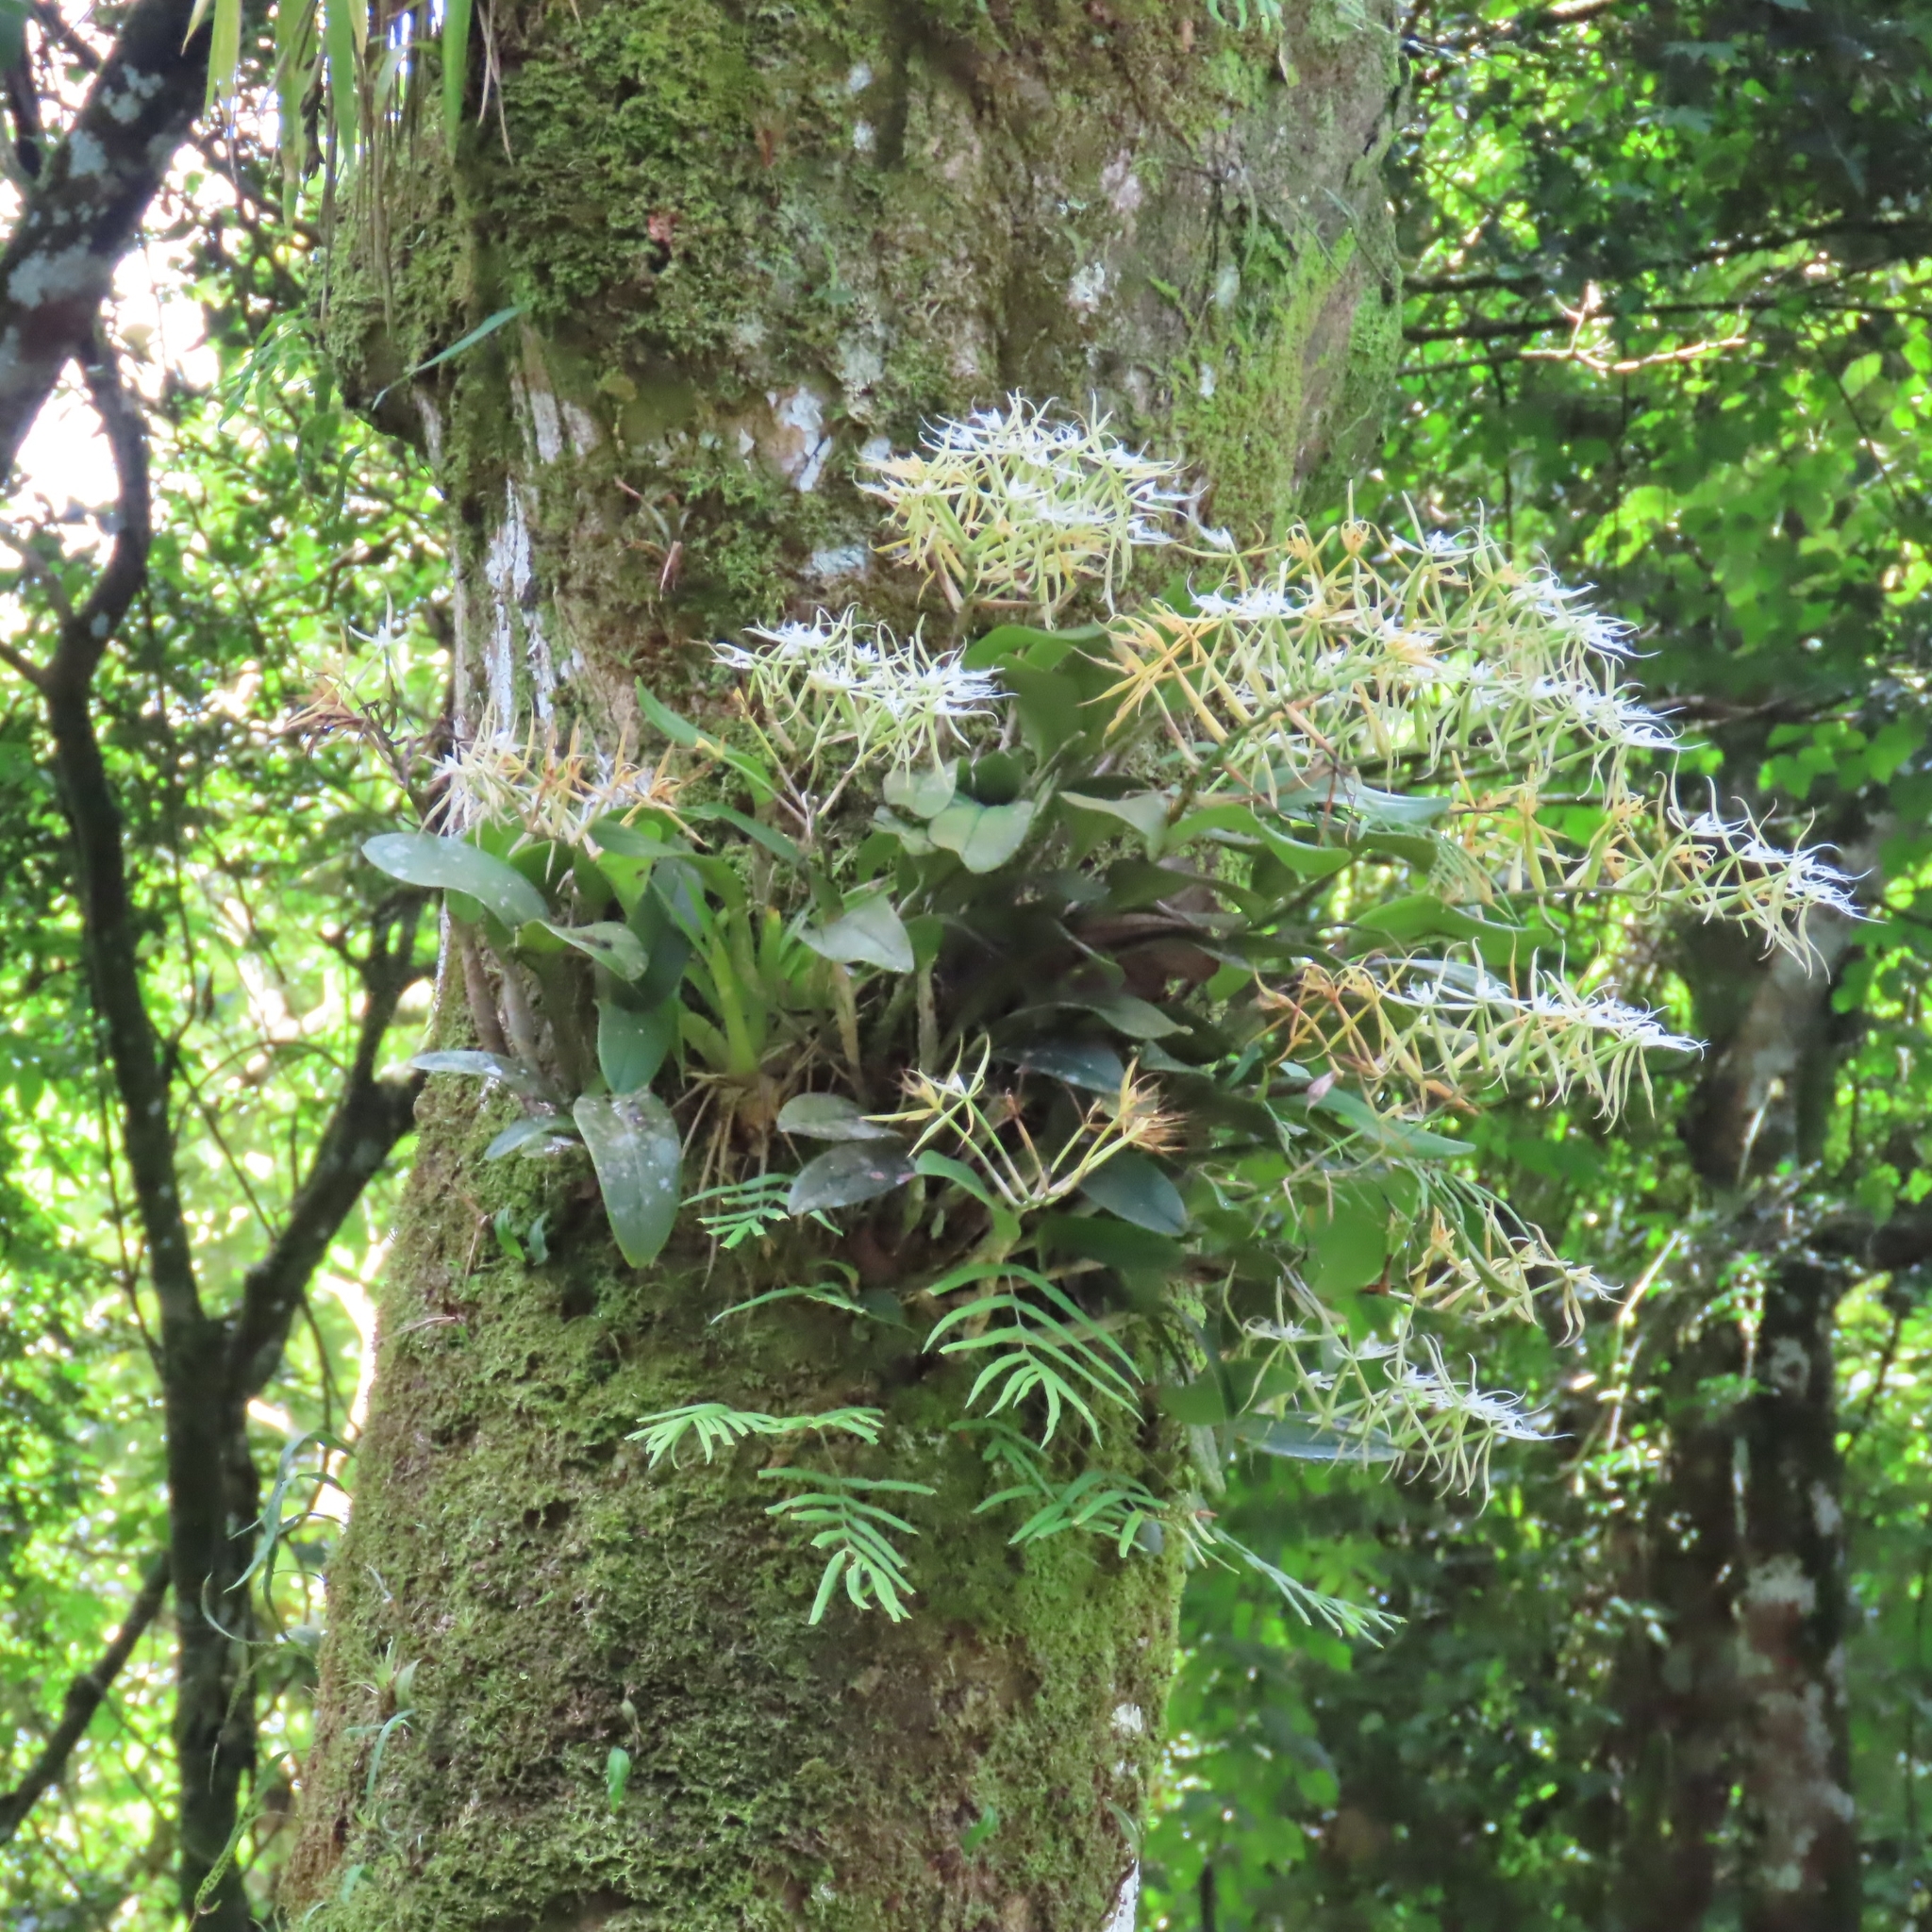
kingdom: Plantae
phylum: Tracheophyta
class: Liliopsida
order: Asparagales
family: Orchidaceae
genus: Epidendrum
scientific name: Epidendrum ciliare
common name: Eyelash orchid
